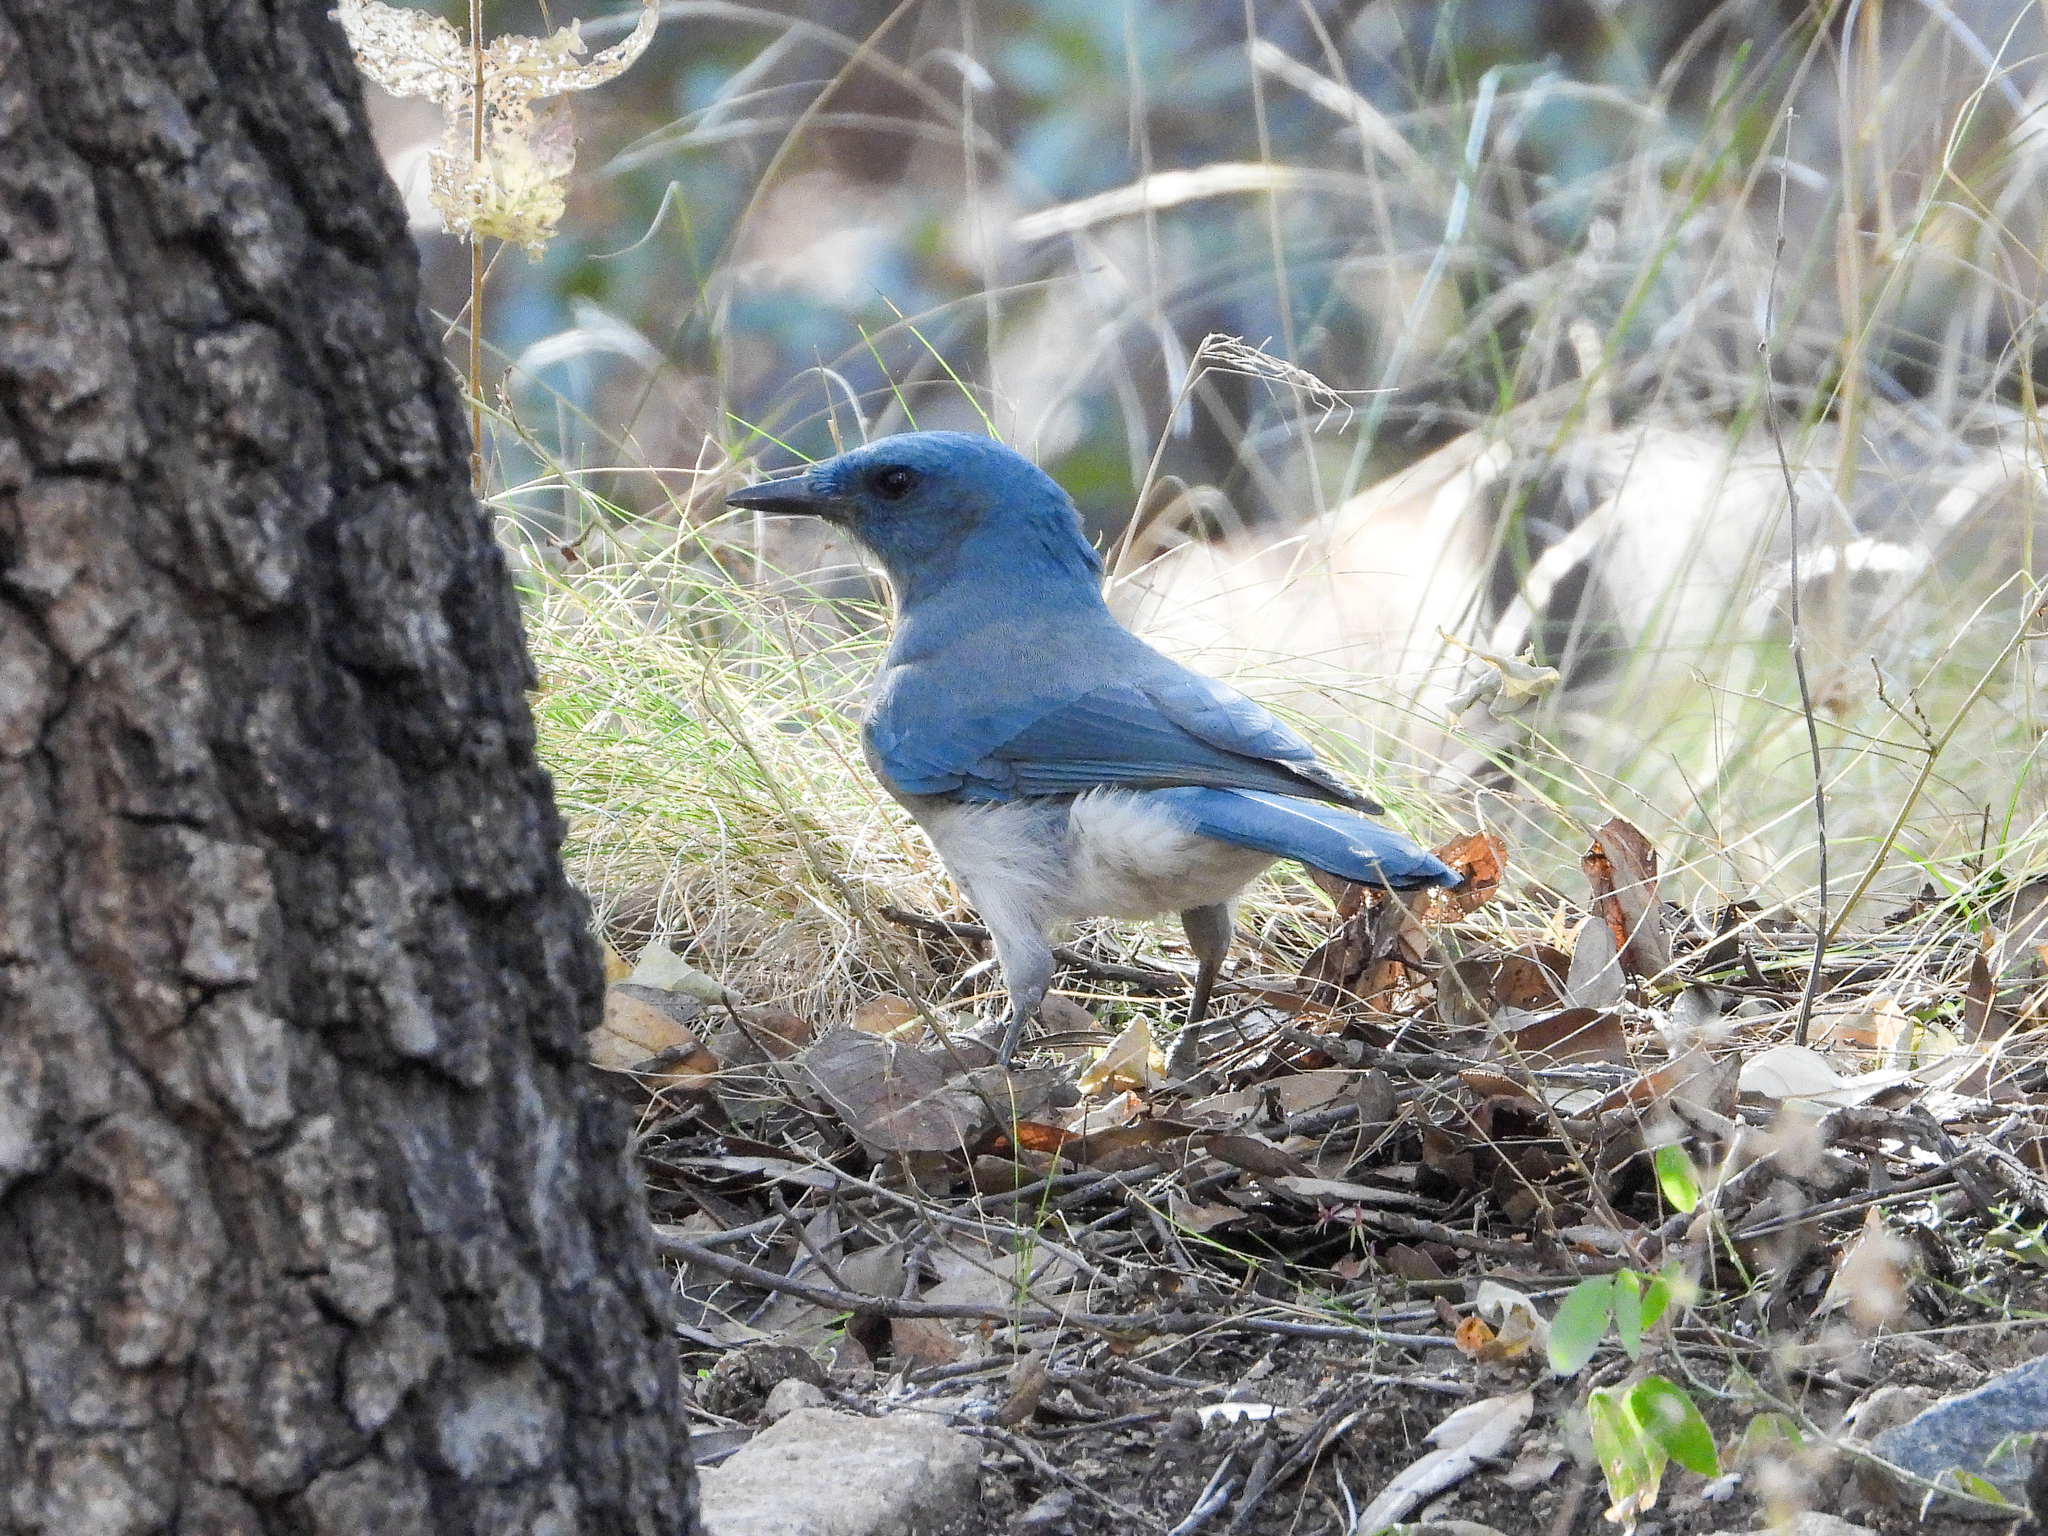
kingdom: Animalia
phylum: Chordata
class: Aves
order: Passeriformes
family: Corvidae
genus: Aphelocoma
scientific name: Aphelocoma wollweberi
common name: Mexican jay
